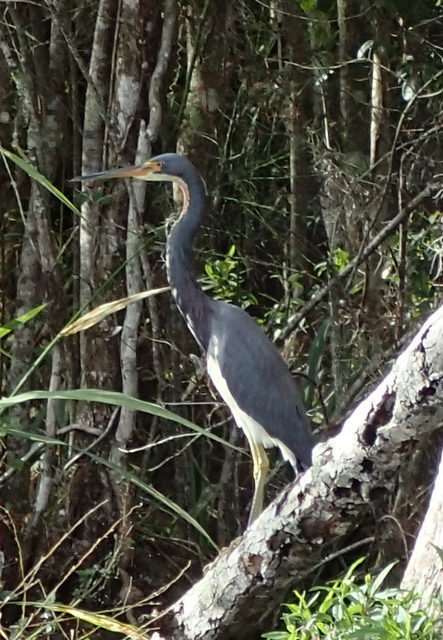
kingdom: Animalia
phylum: Chordata
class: Aves
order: Pelecaniformes
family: Ardeidae
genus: Egretta
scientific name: Egretta tricolor
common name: Tricolored heron
